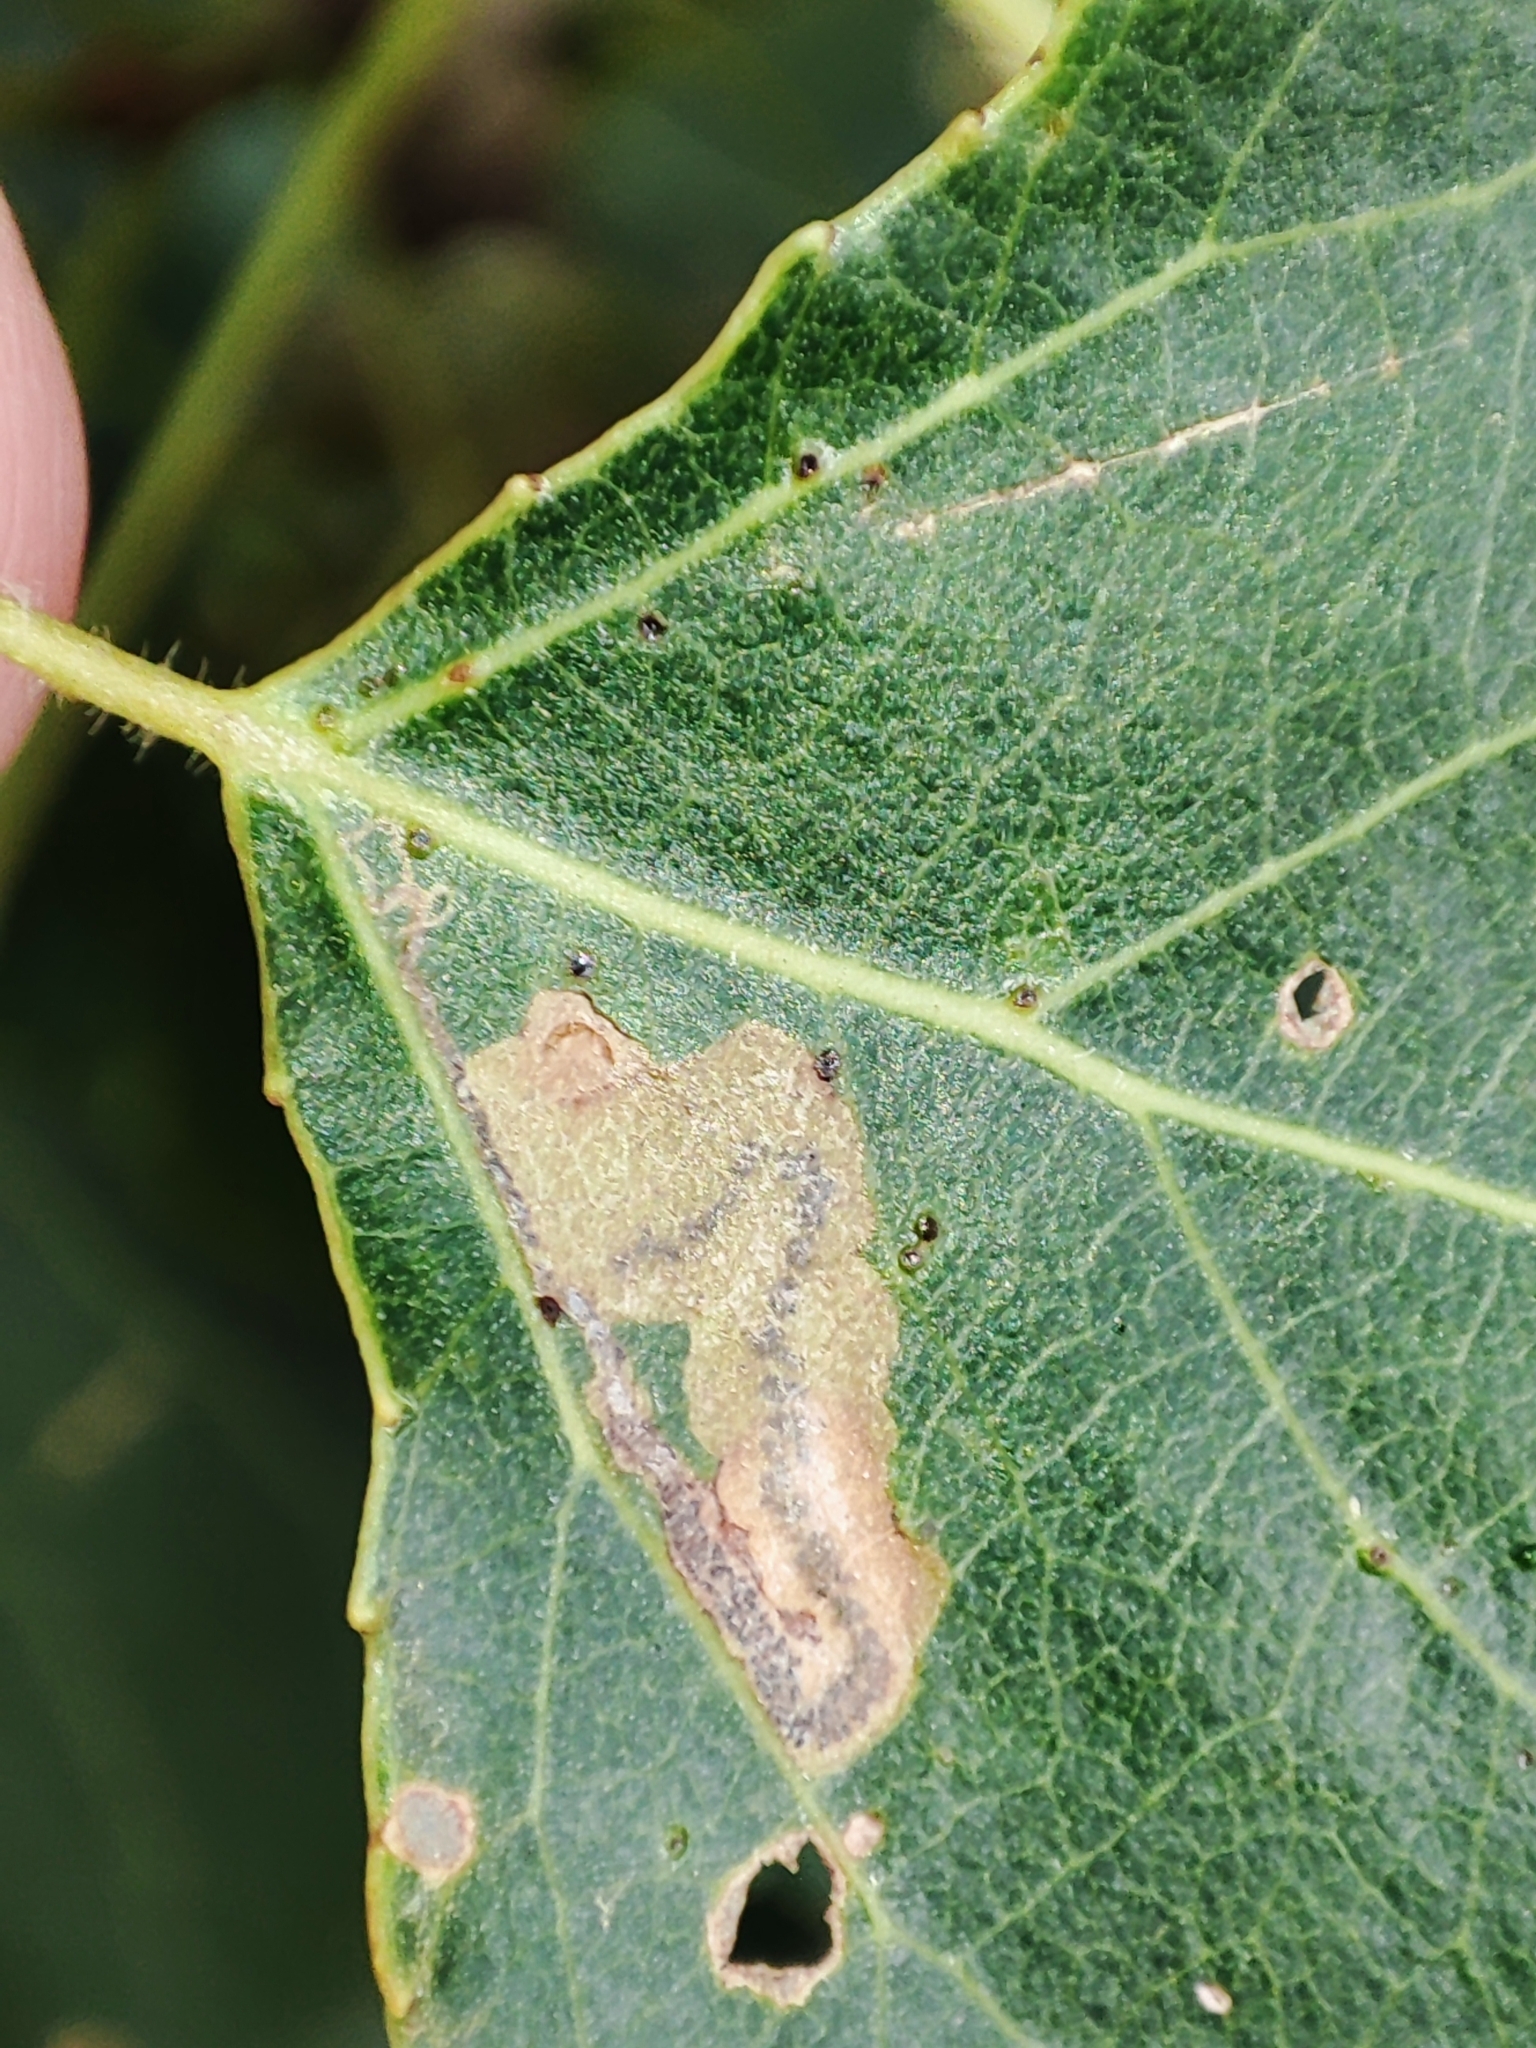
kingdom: Animalia
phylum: Arthropoda
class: Insecta
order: Lepidoptera
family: Nepticulidae
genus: Stigmella
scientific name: Stigmella trimaculella
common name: Black-poplar pigmy
